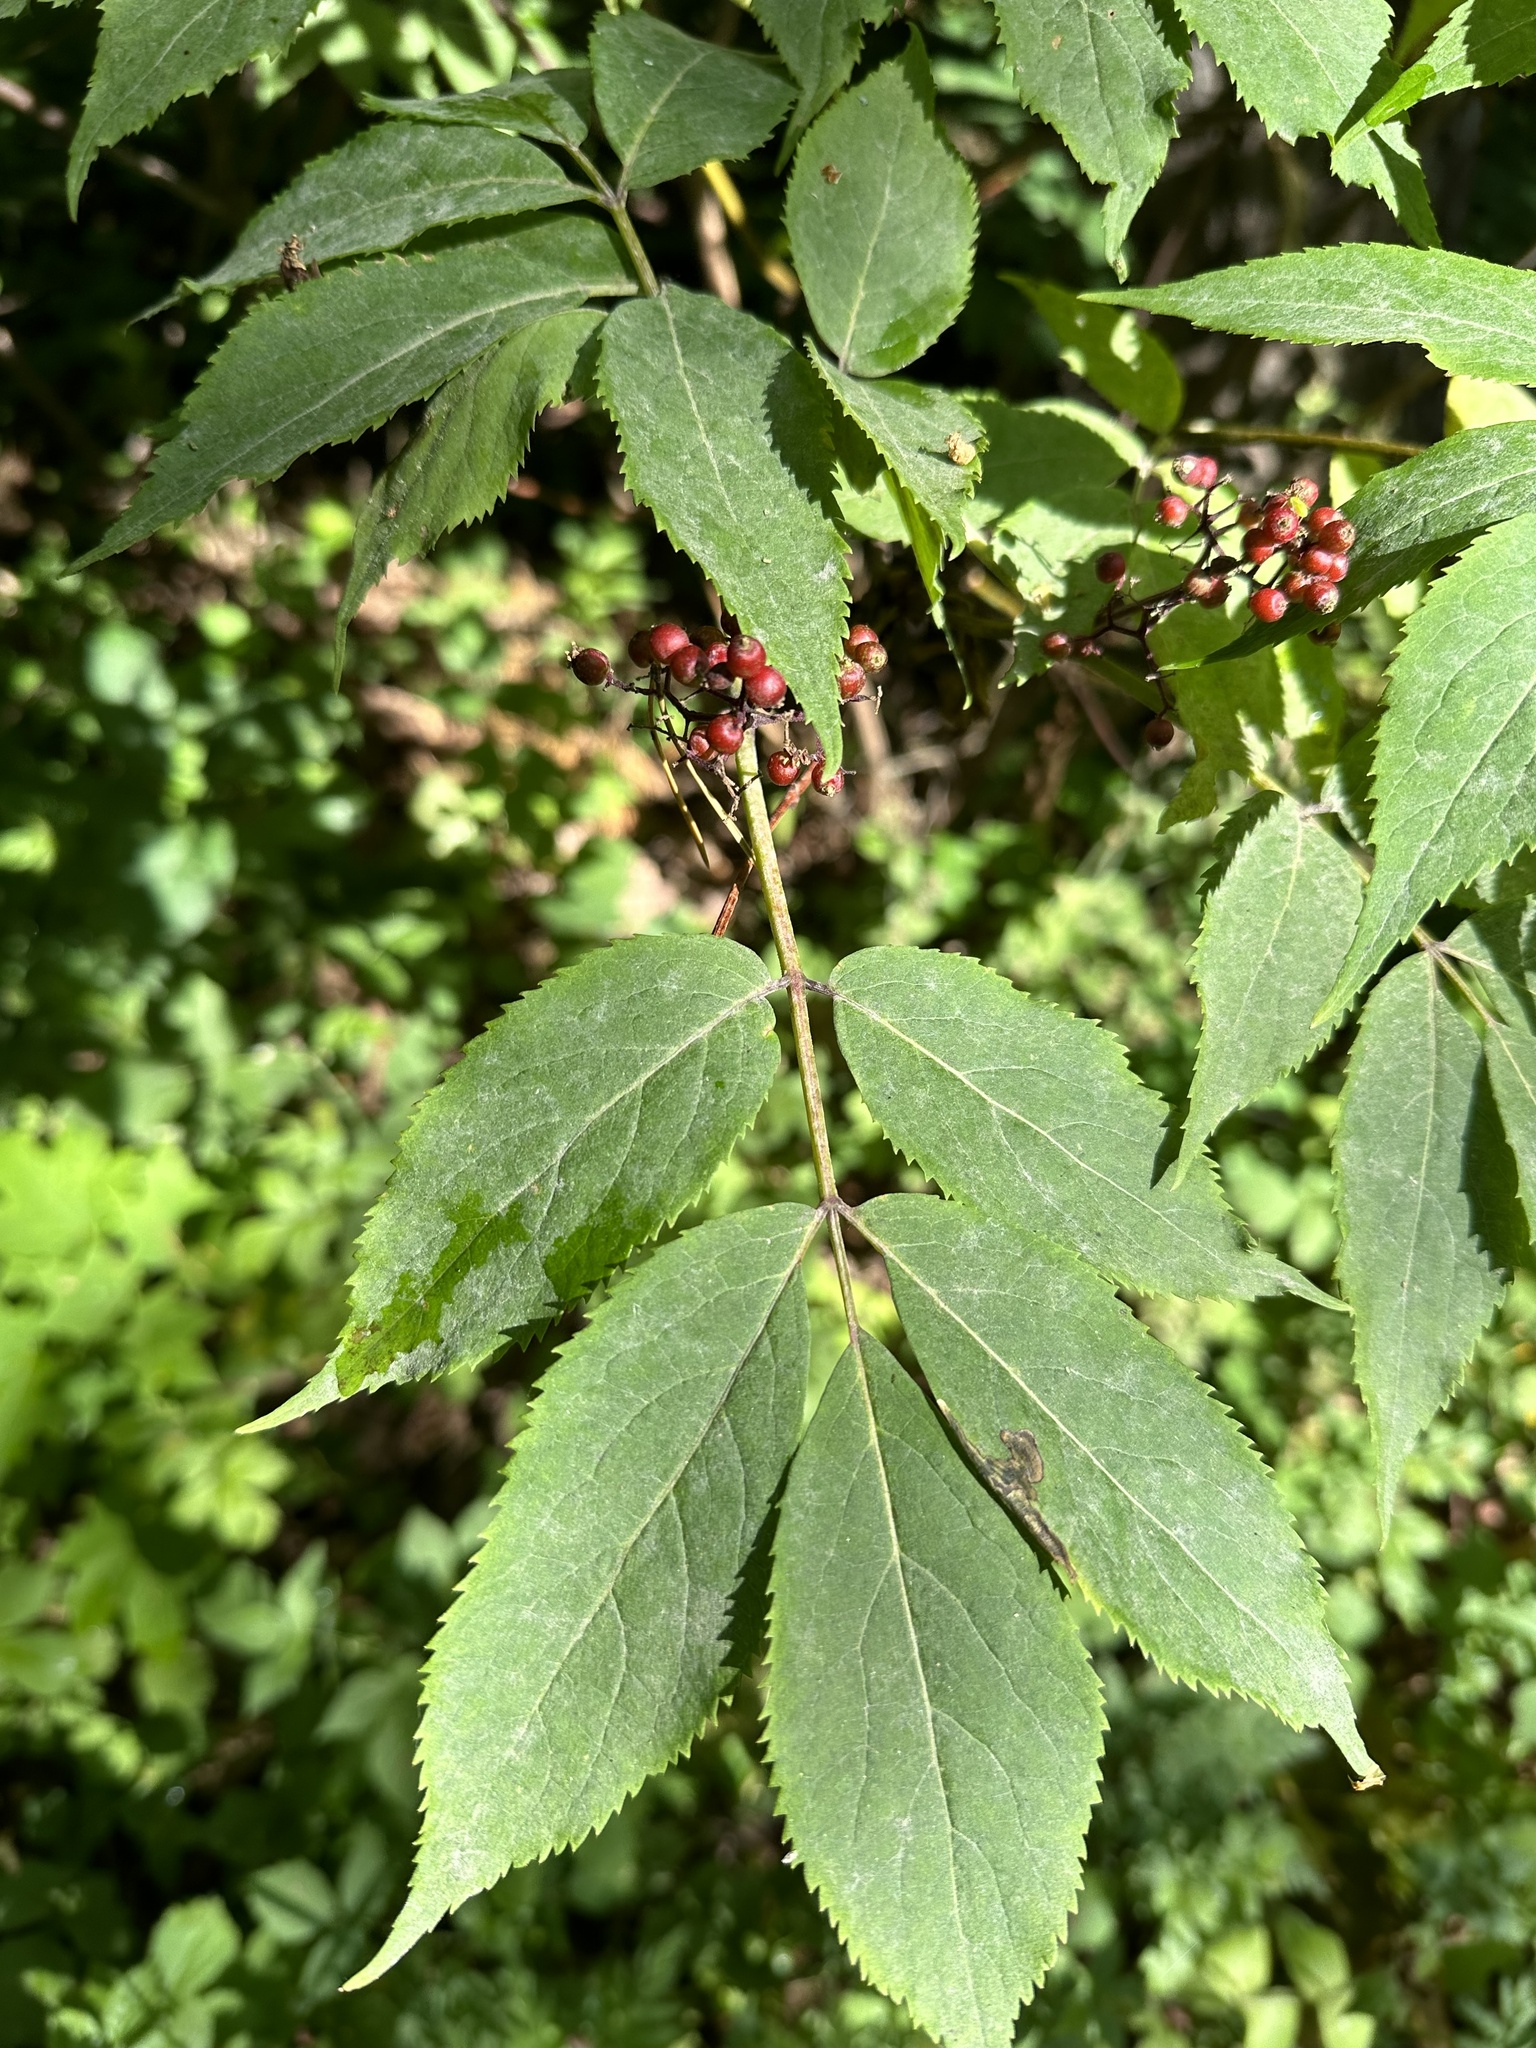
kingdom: Plantae
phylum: Tracheophyta
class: Magnoliopsida
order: Dipsacales
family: Viburnaceae
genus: Sambucus
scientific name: Sambucus racemosa
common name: Red-berried elder
